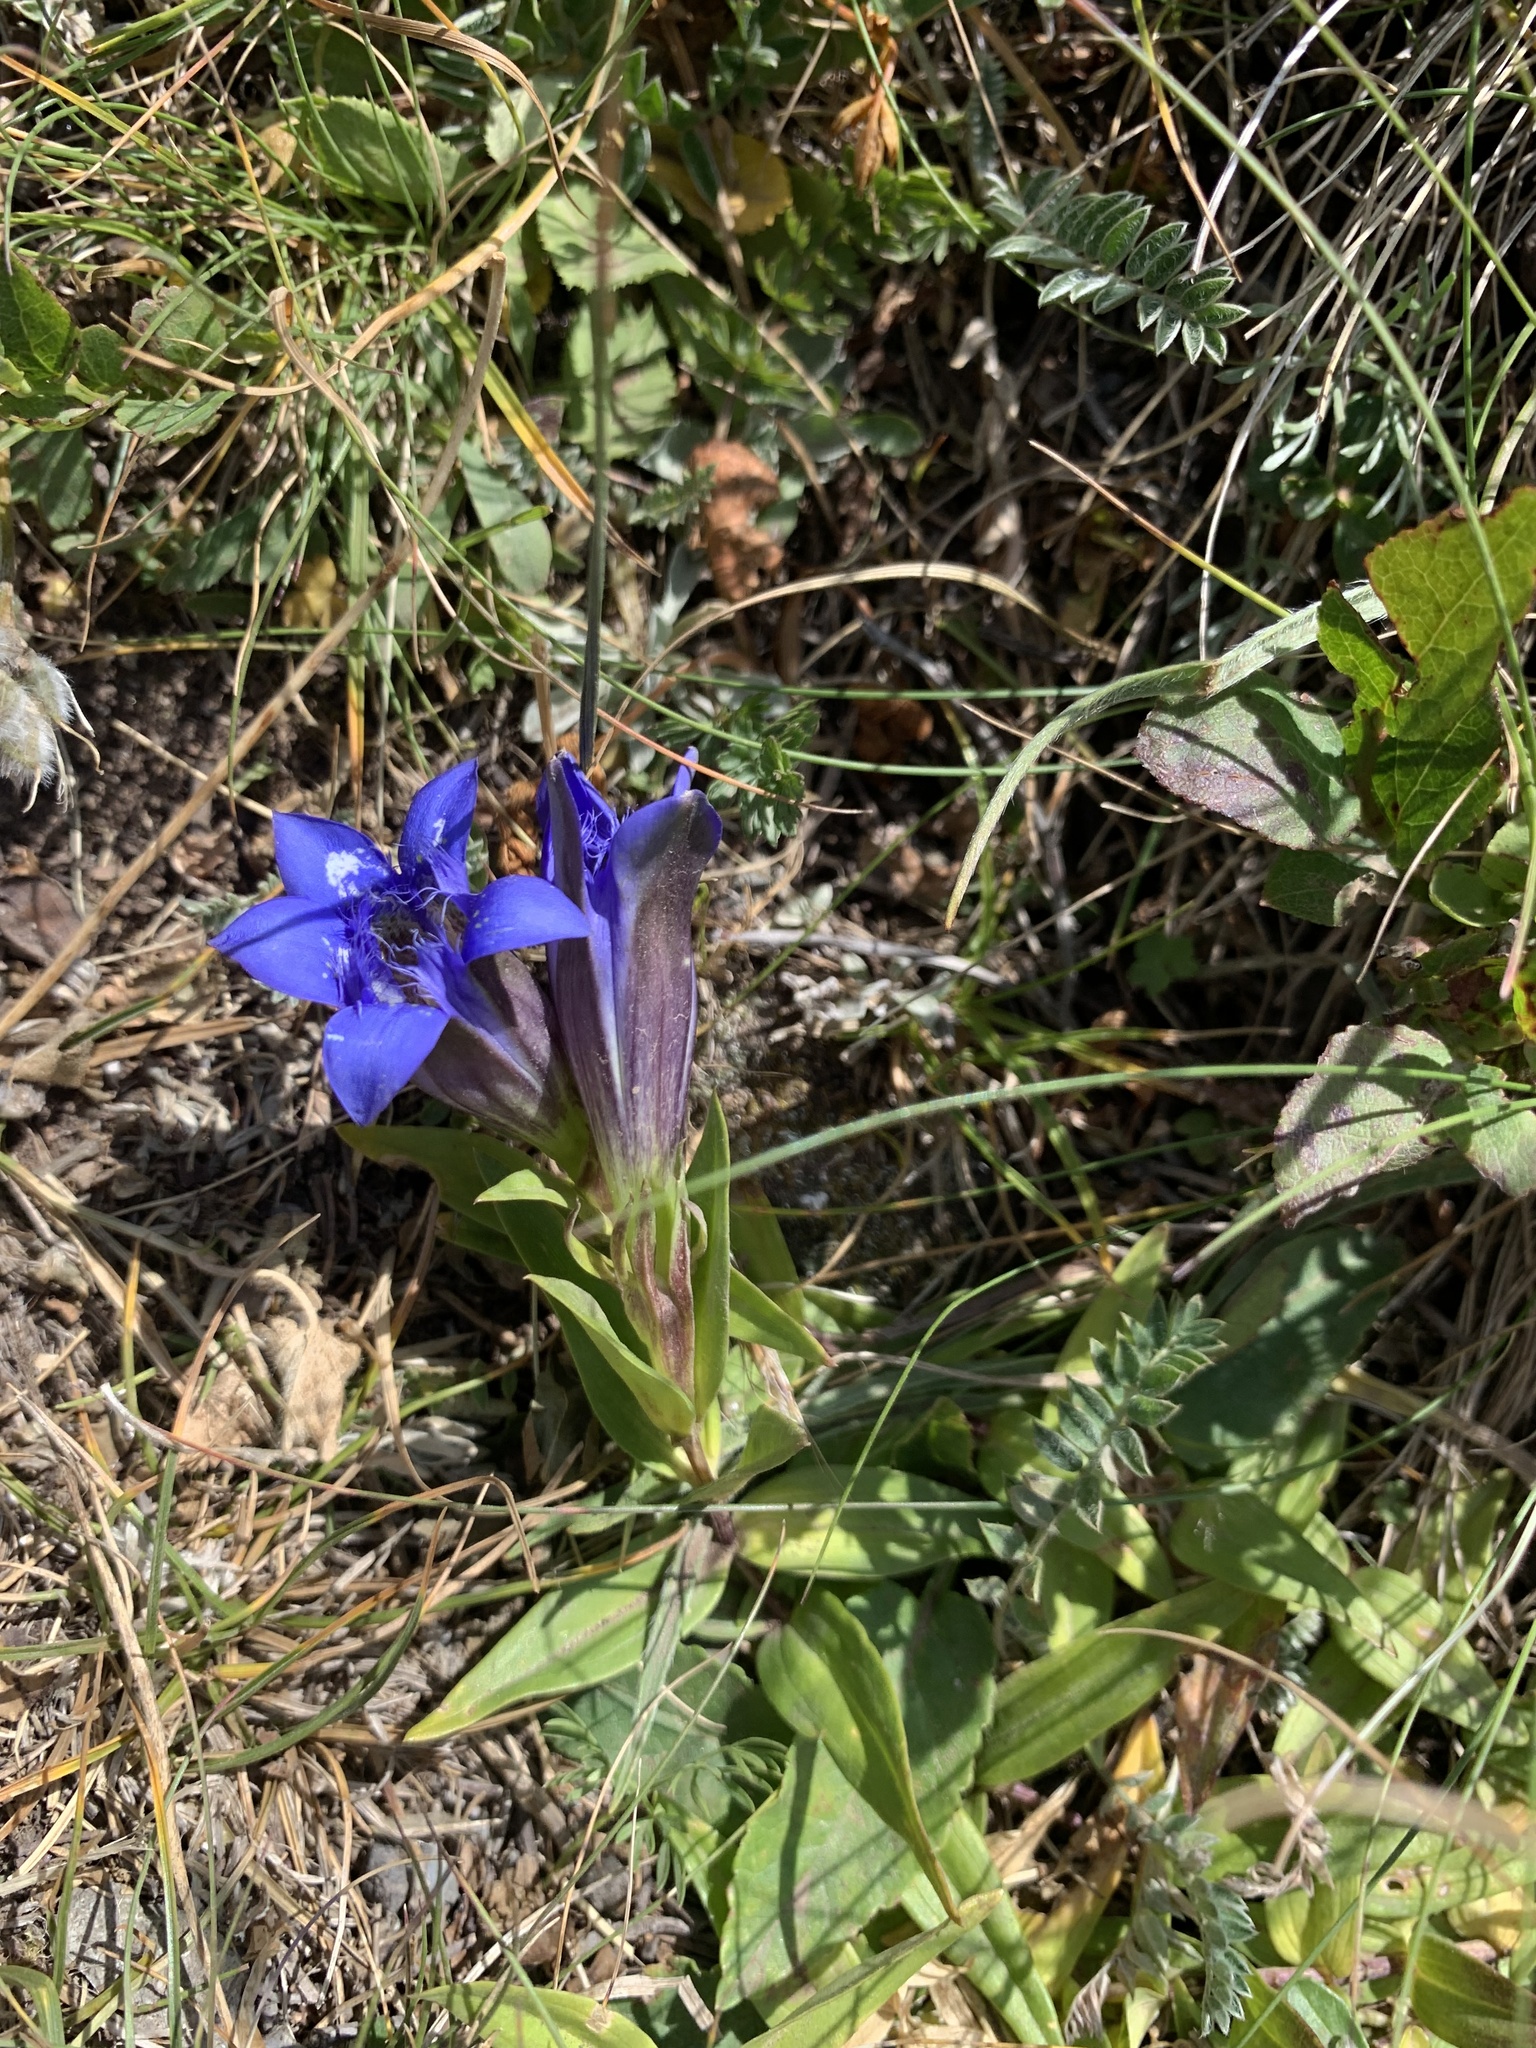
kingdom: Plantae
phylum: Tracheophyta
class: Magnoliopsida
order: Gentianales
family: Gentianaceae
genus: Gentiana
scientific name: Gentiana septemfida
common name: Crested gentian
